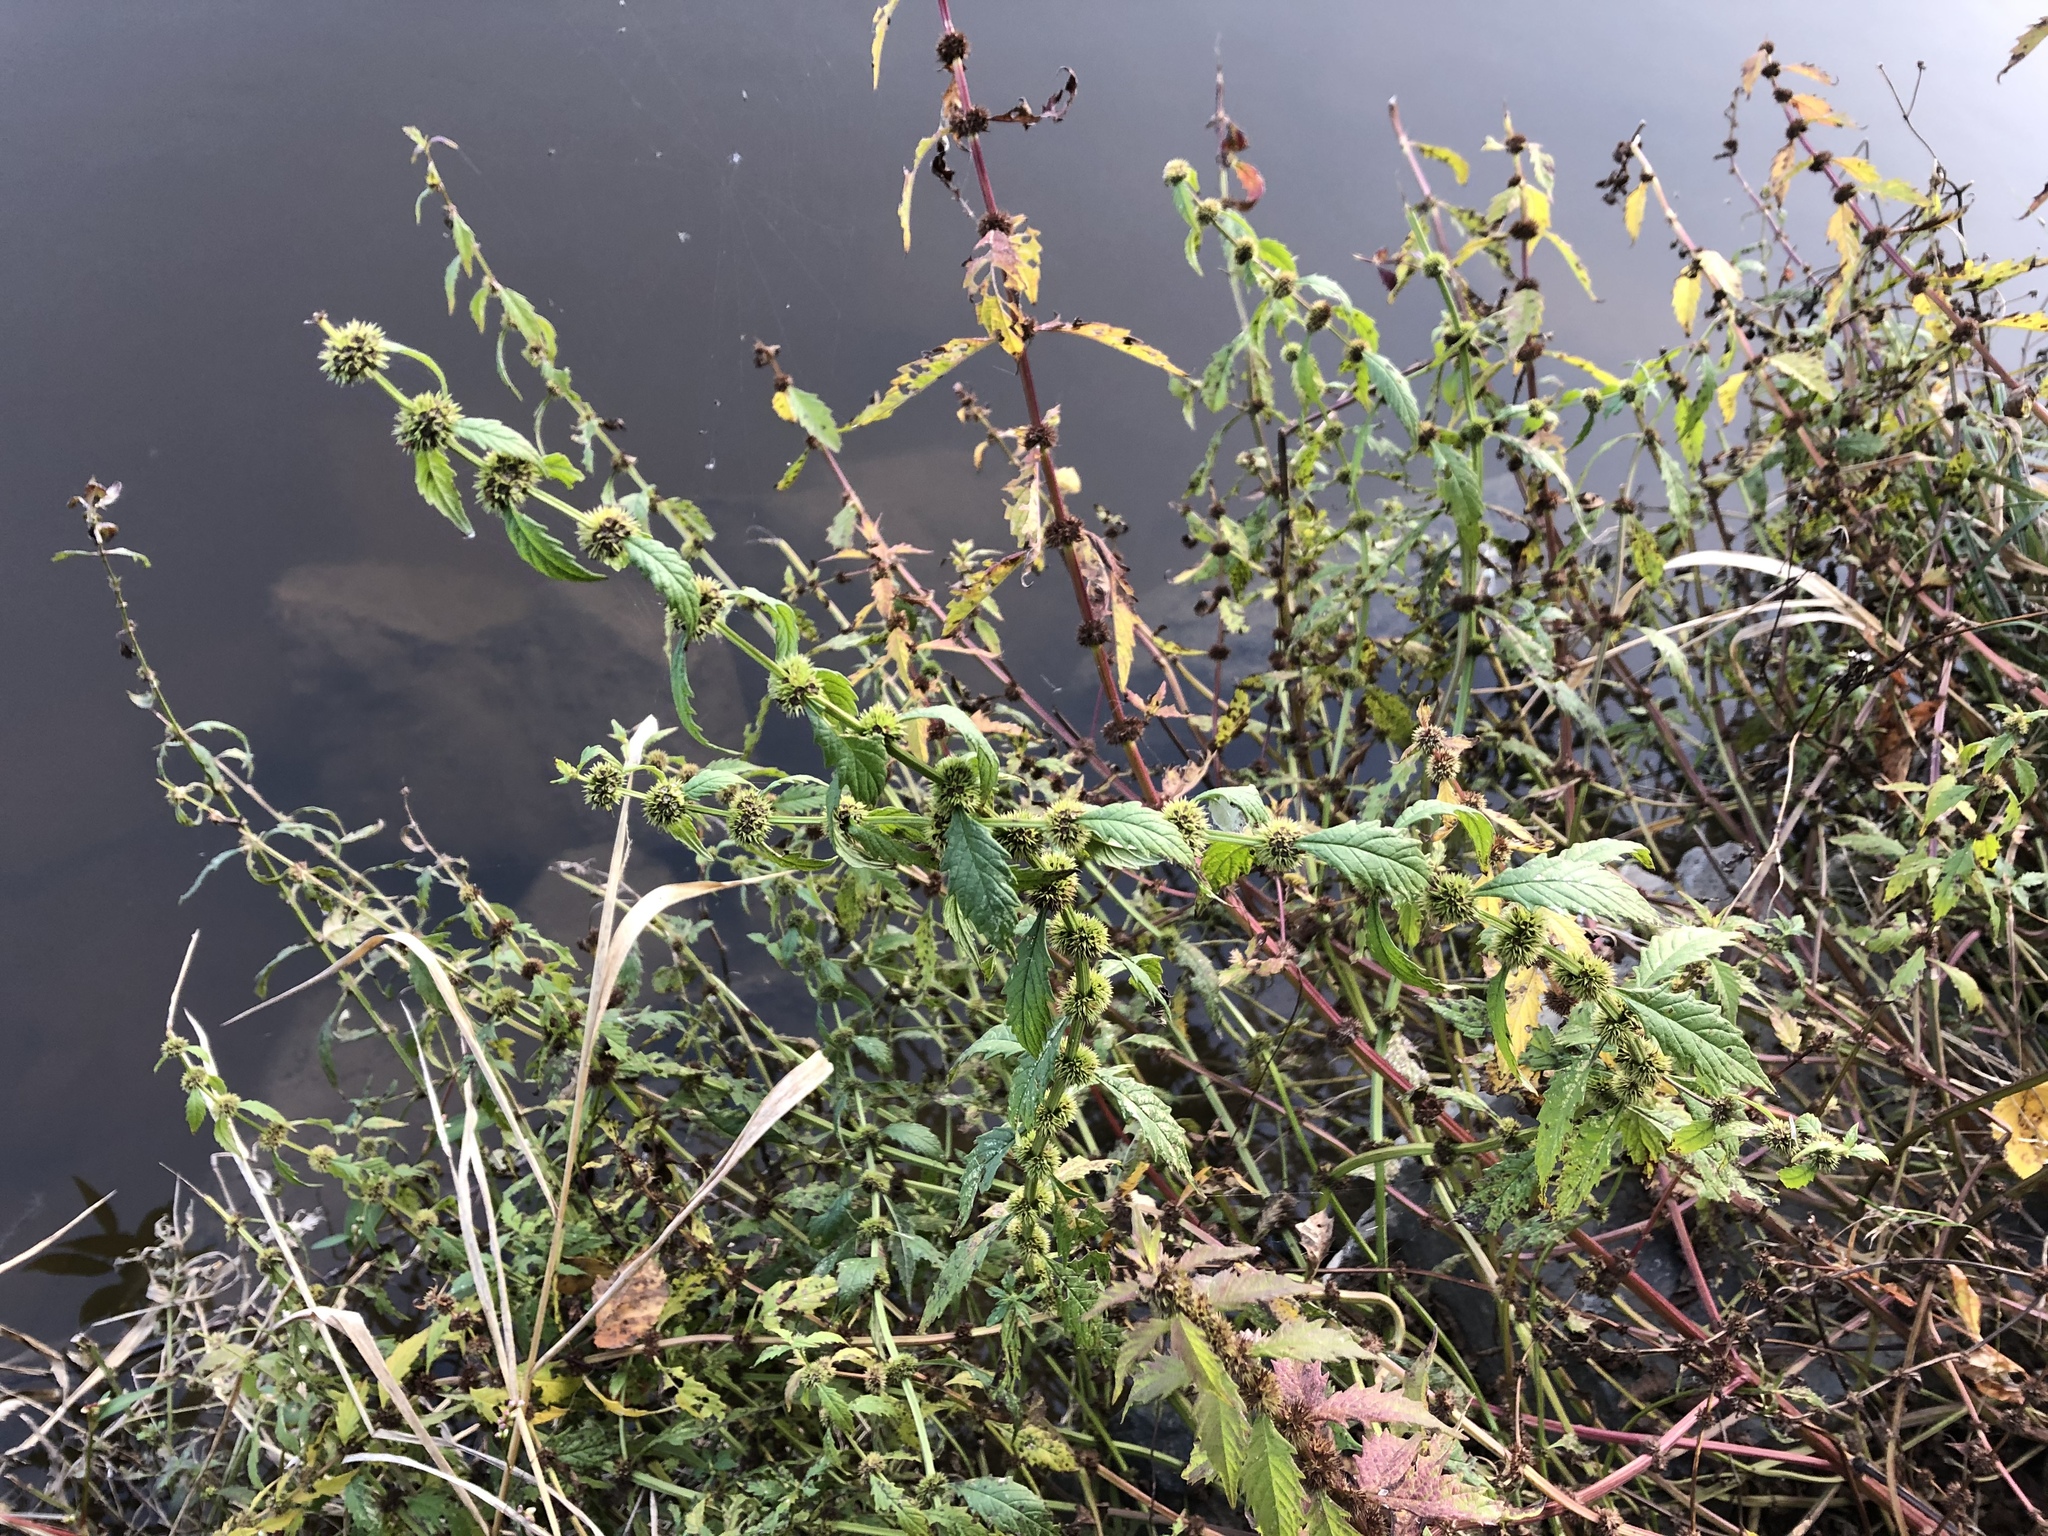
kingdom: Plantae
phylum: Tracheophyta
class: Magnoliopsida
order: Lamiales
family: Lamiaceae
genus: Lycopus
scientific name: Lycopus europaeus
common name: European bugleweed
